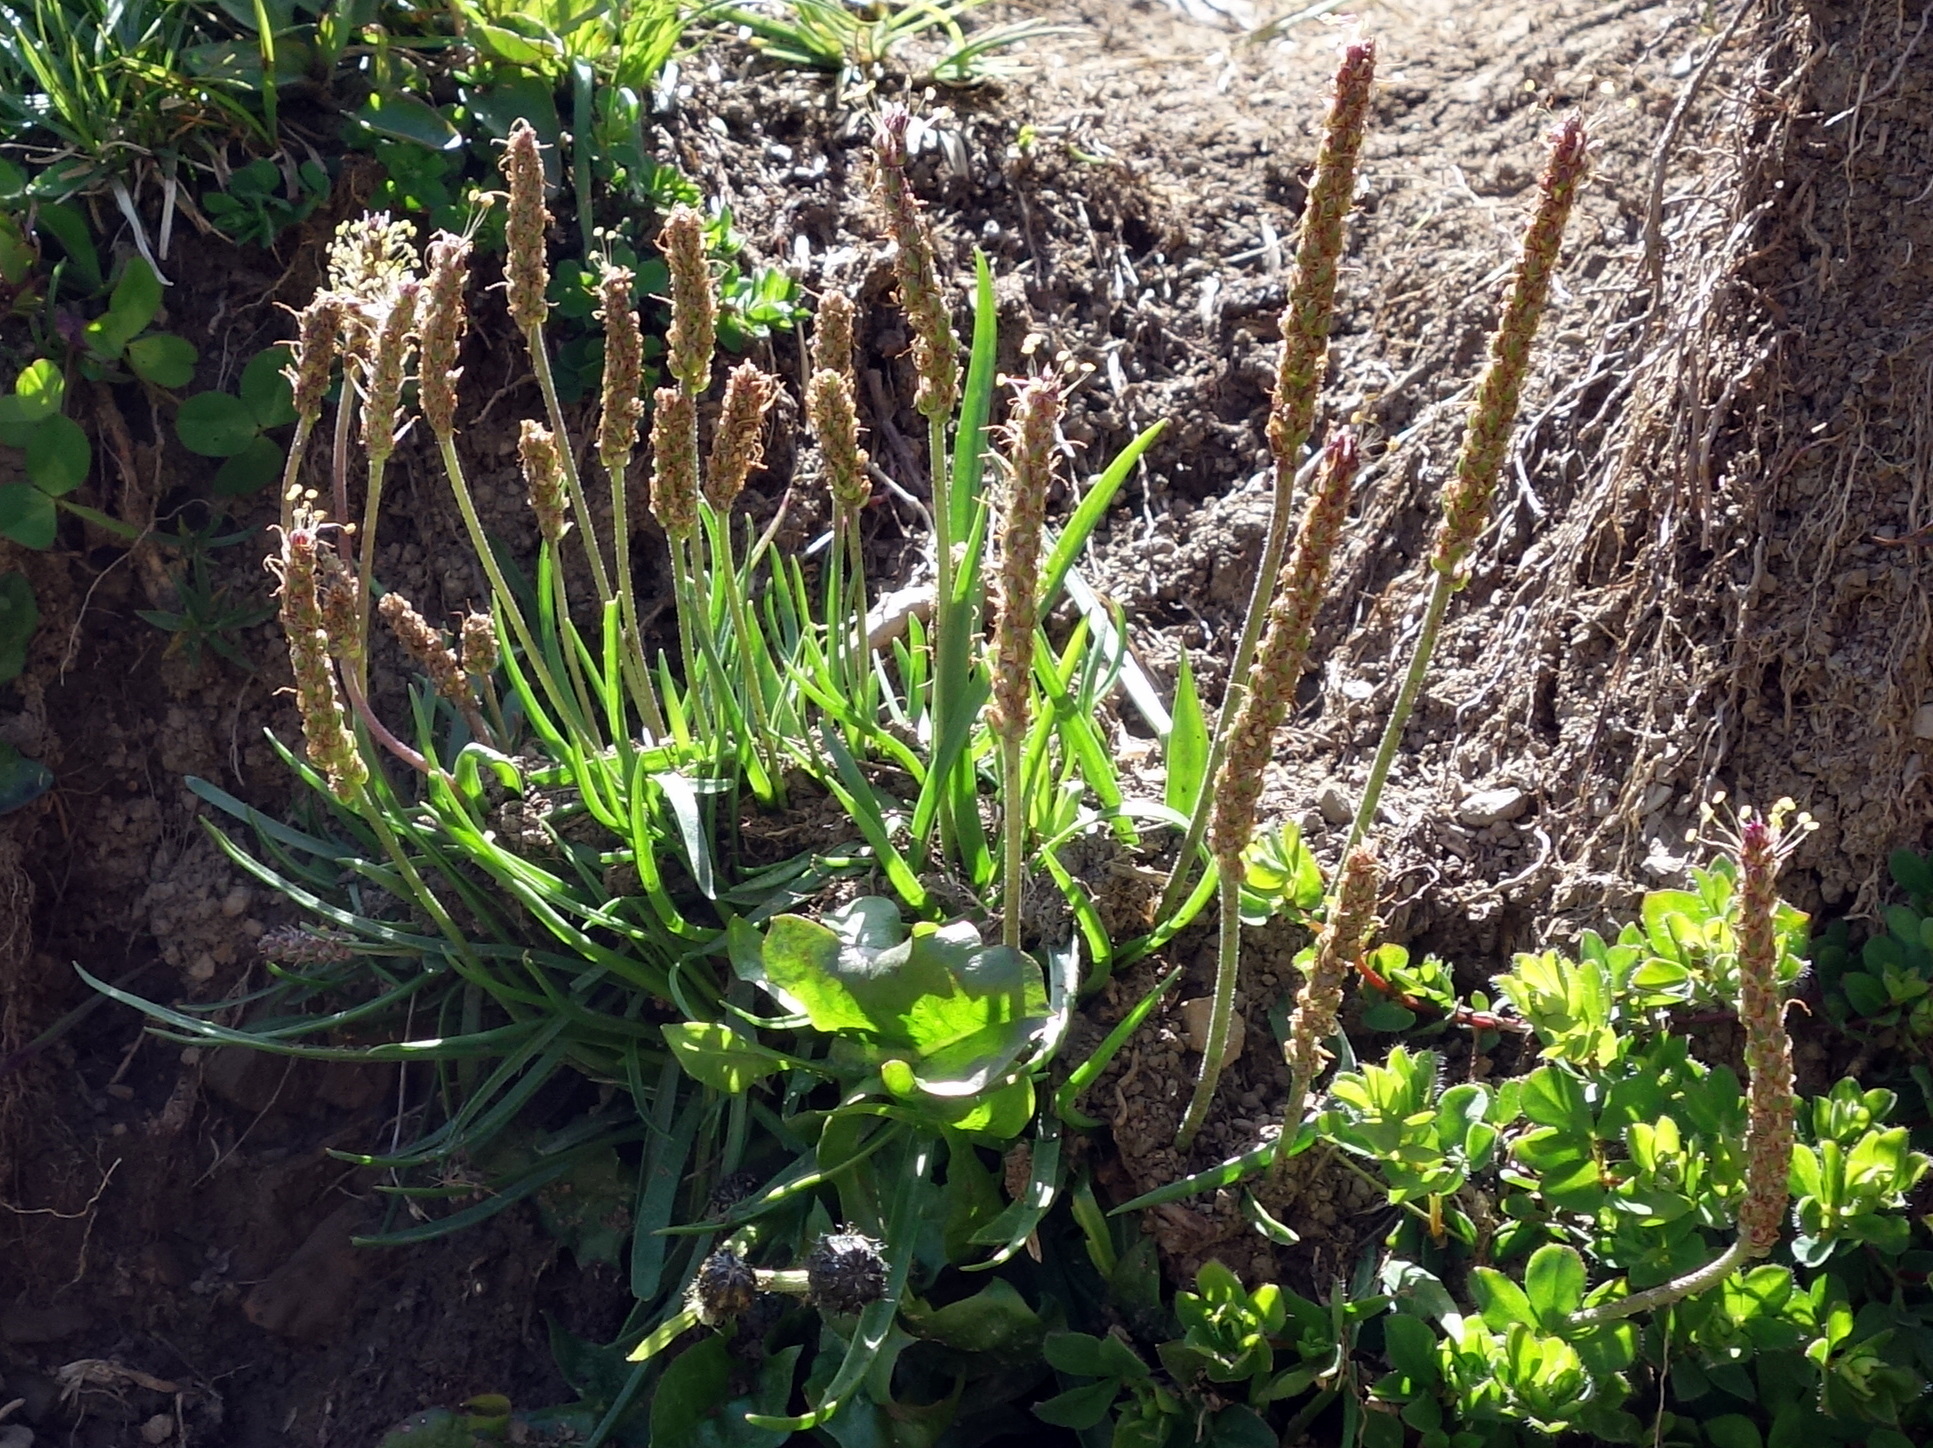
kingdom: Plantae
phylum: Tracheophyta
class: Magnoliopsida
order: Lamiales
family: Plantaginaceae
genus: Plantago
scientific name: Plantago alpina
